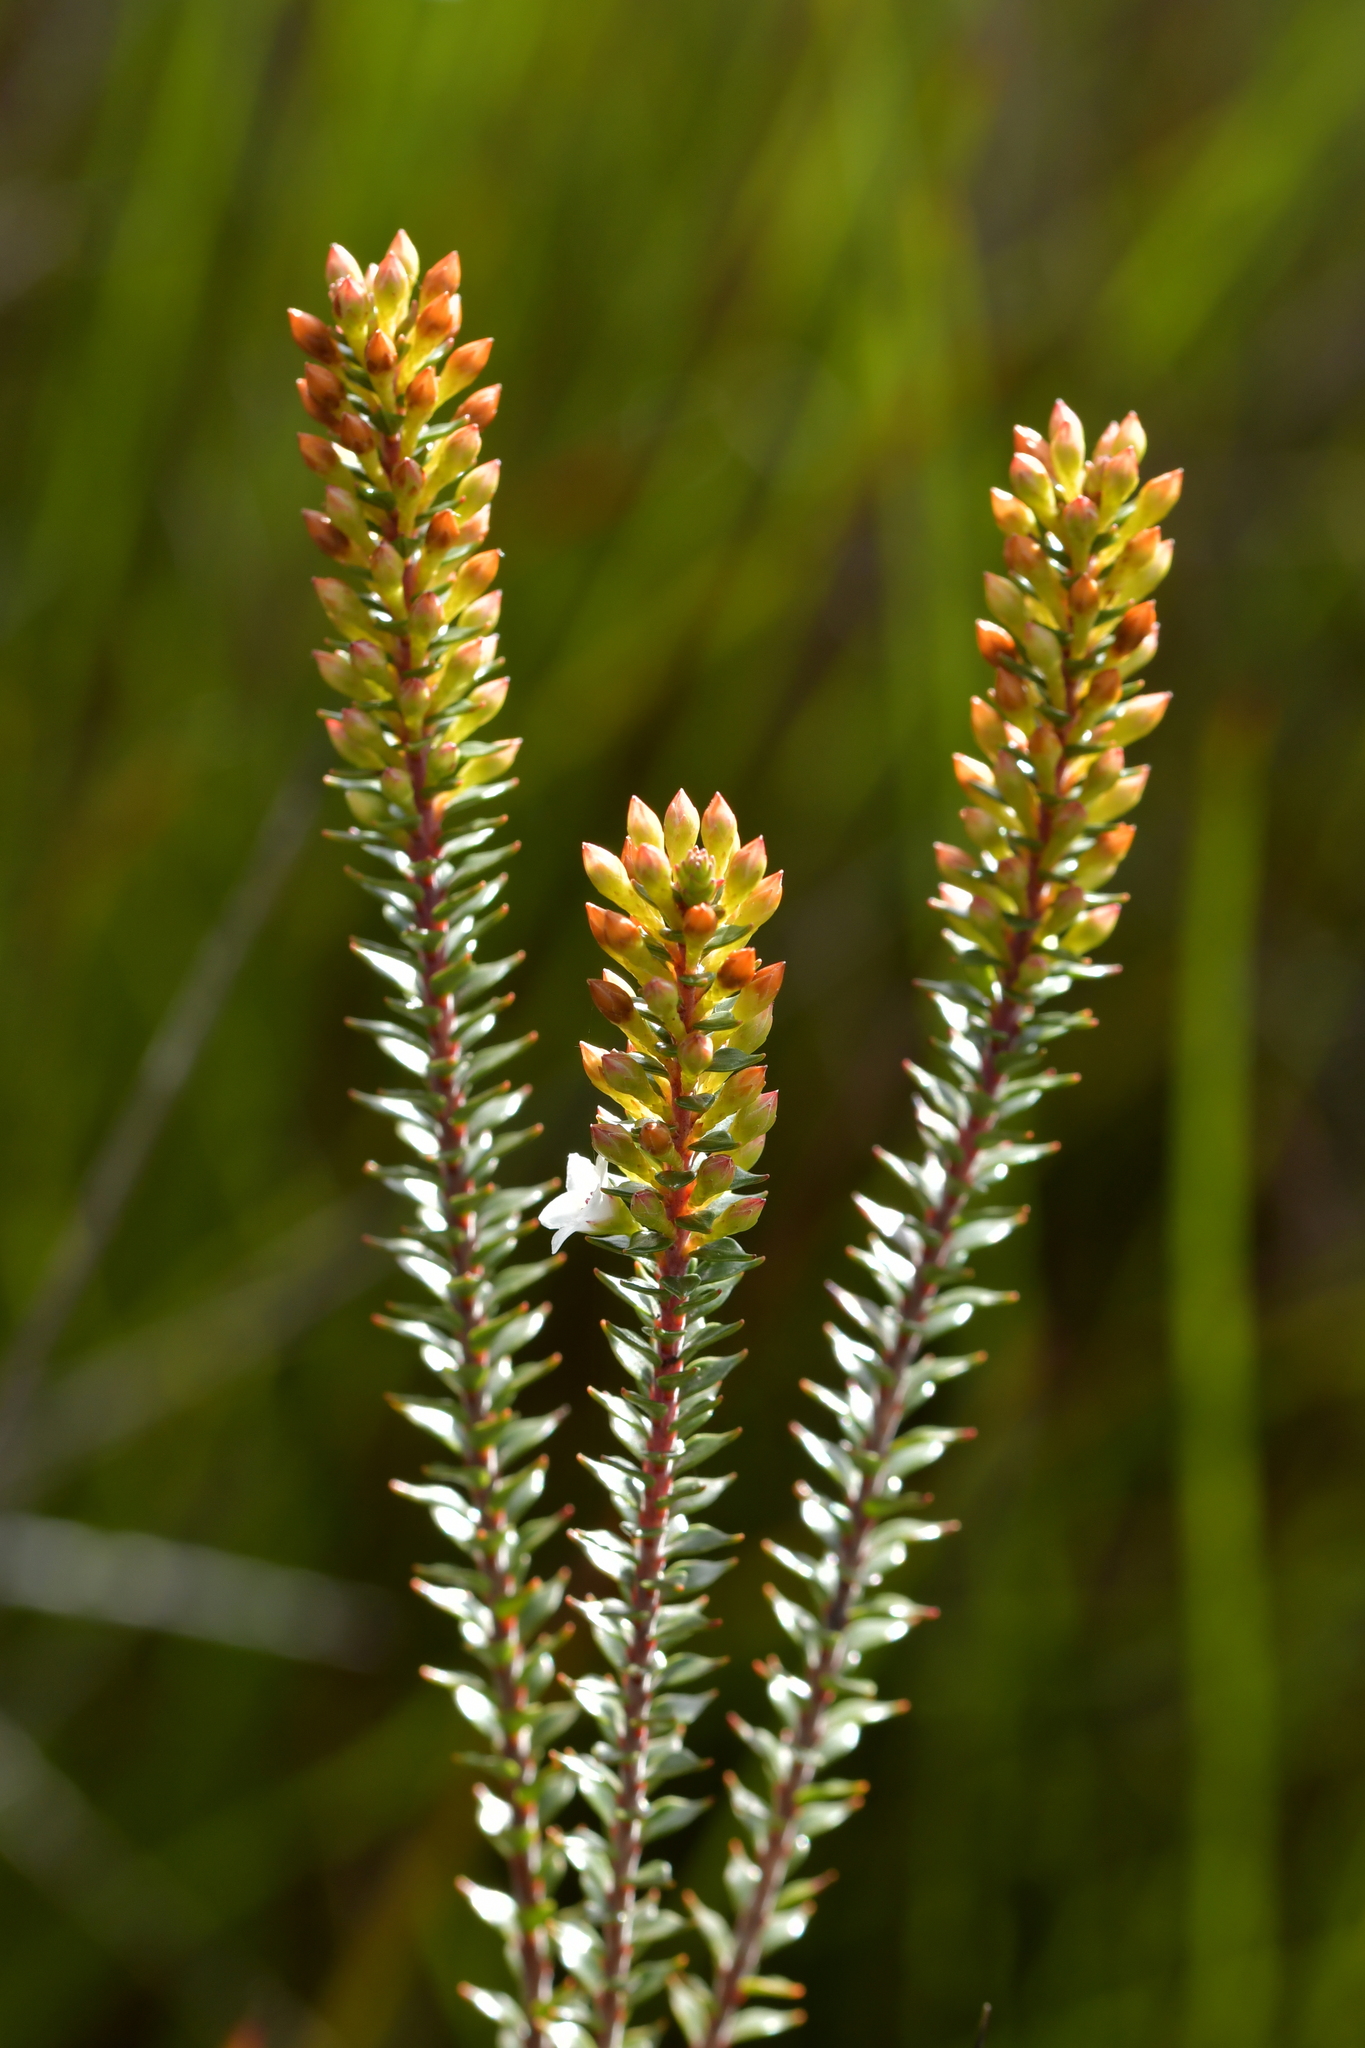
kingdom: Plantae
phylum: Tracheophyta
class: Magnoliopsida
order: Ericales
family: Ericaceae
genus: Epacris
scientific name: Epacris pauciflora
